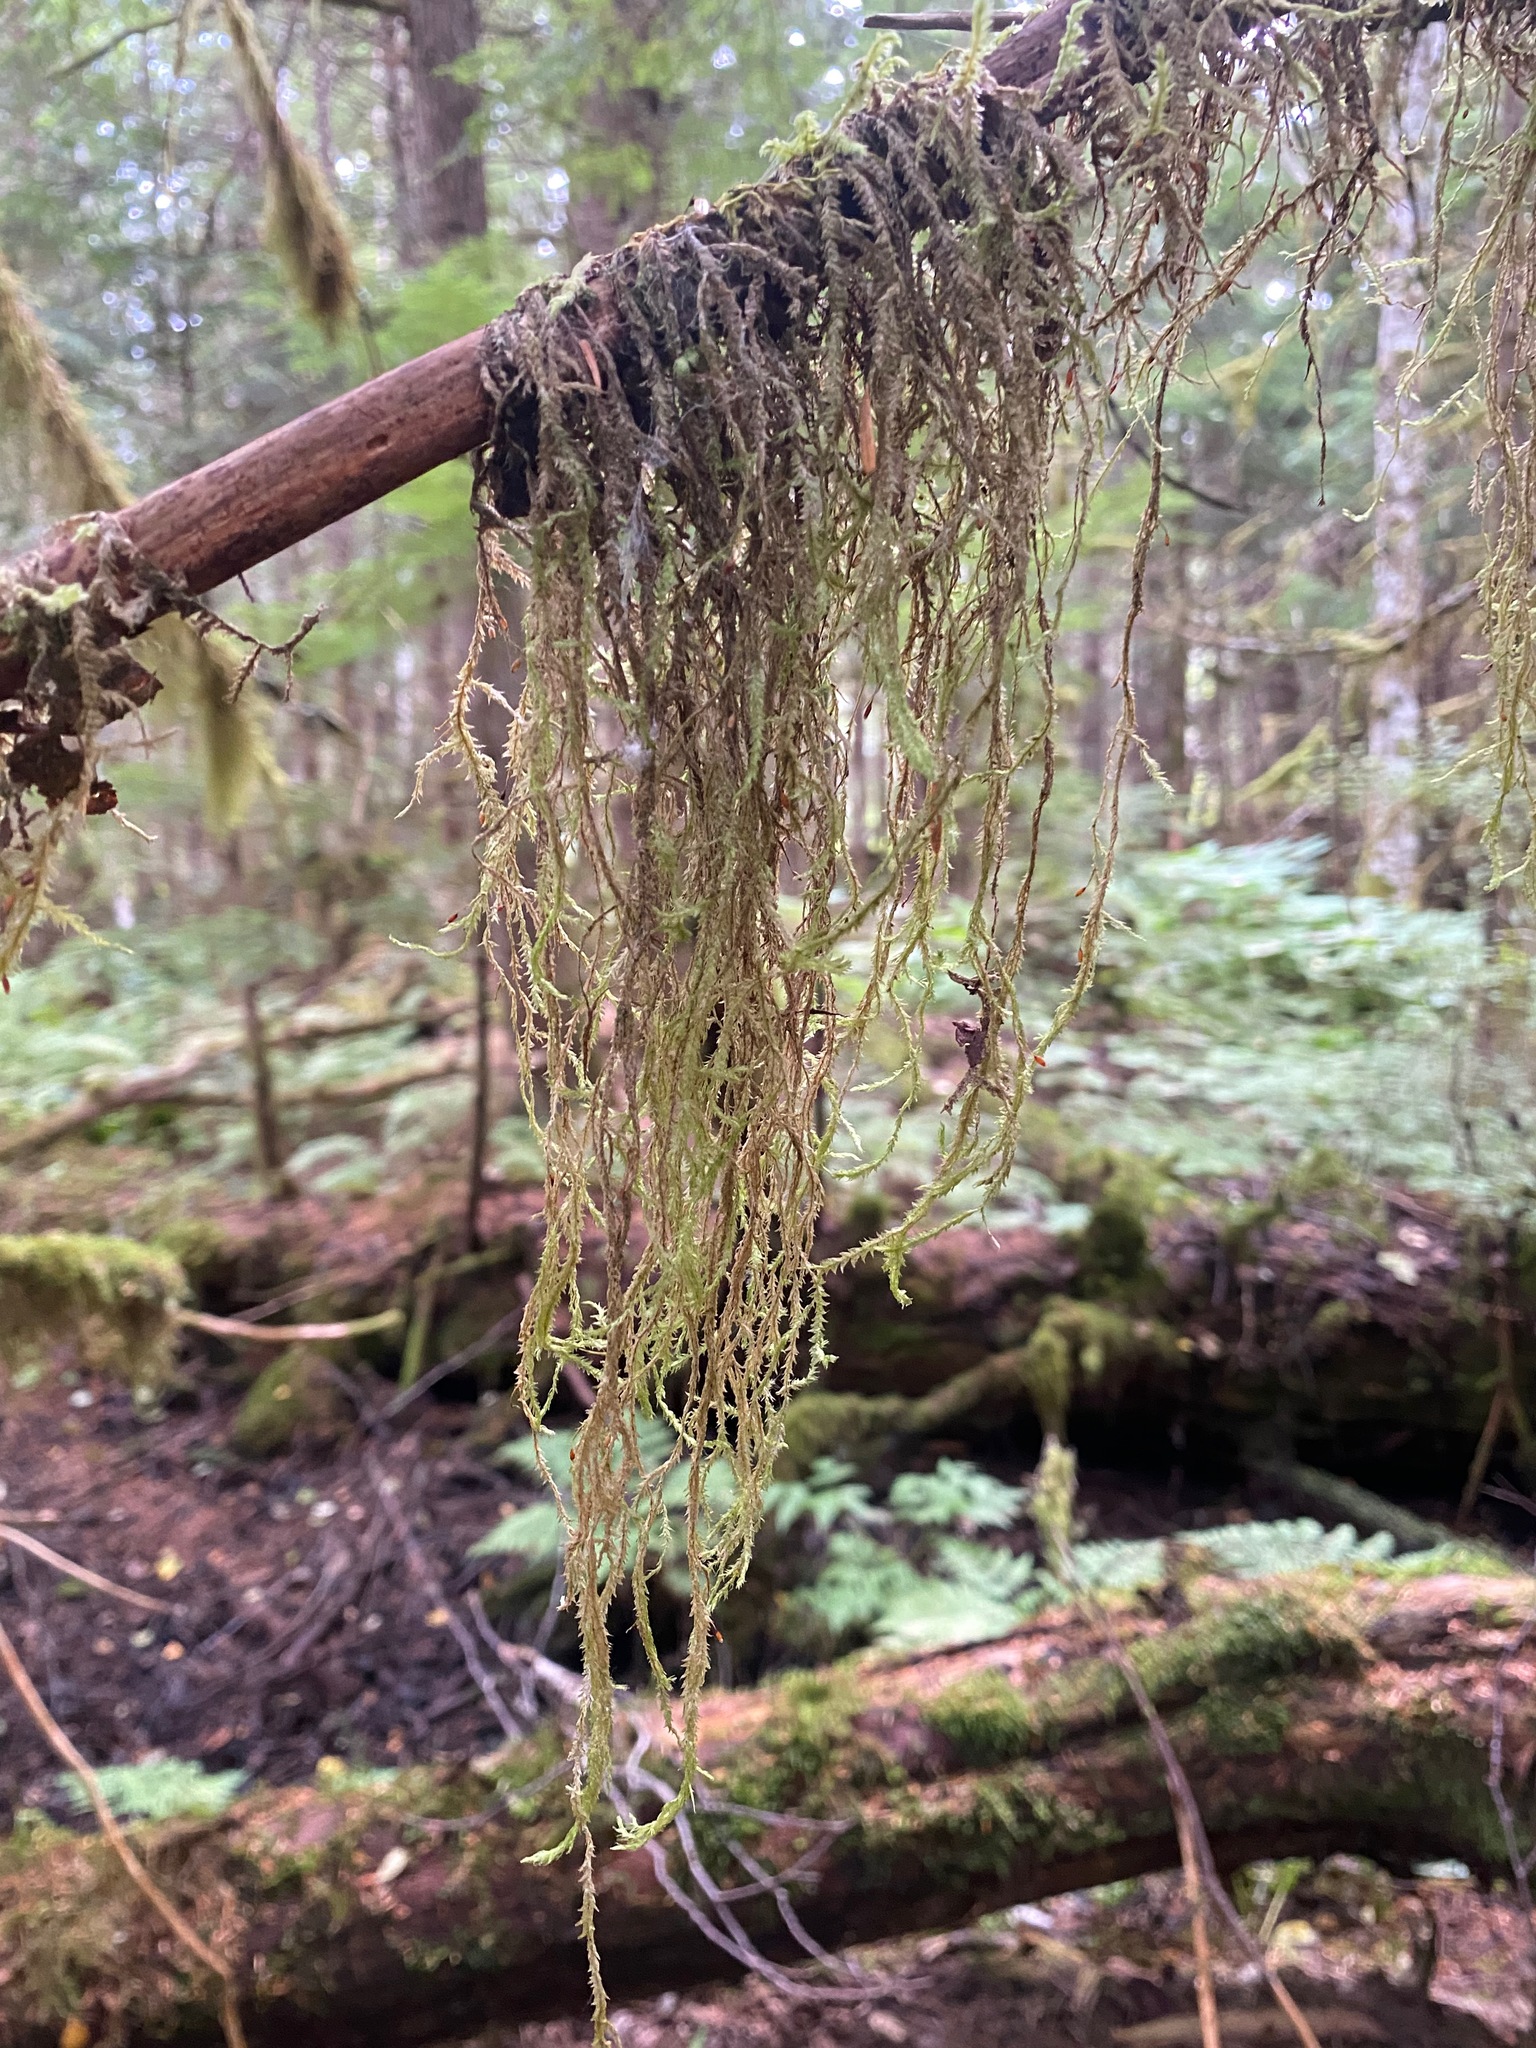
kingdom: Plantae
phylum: Bryophyta
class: Bryopsida
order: Hypnales
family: Lembophyllaceae
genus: Pseudisothecium
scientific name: Pseudisothecium stoloniferum
